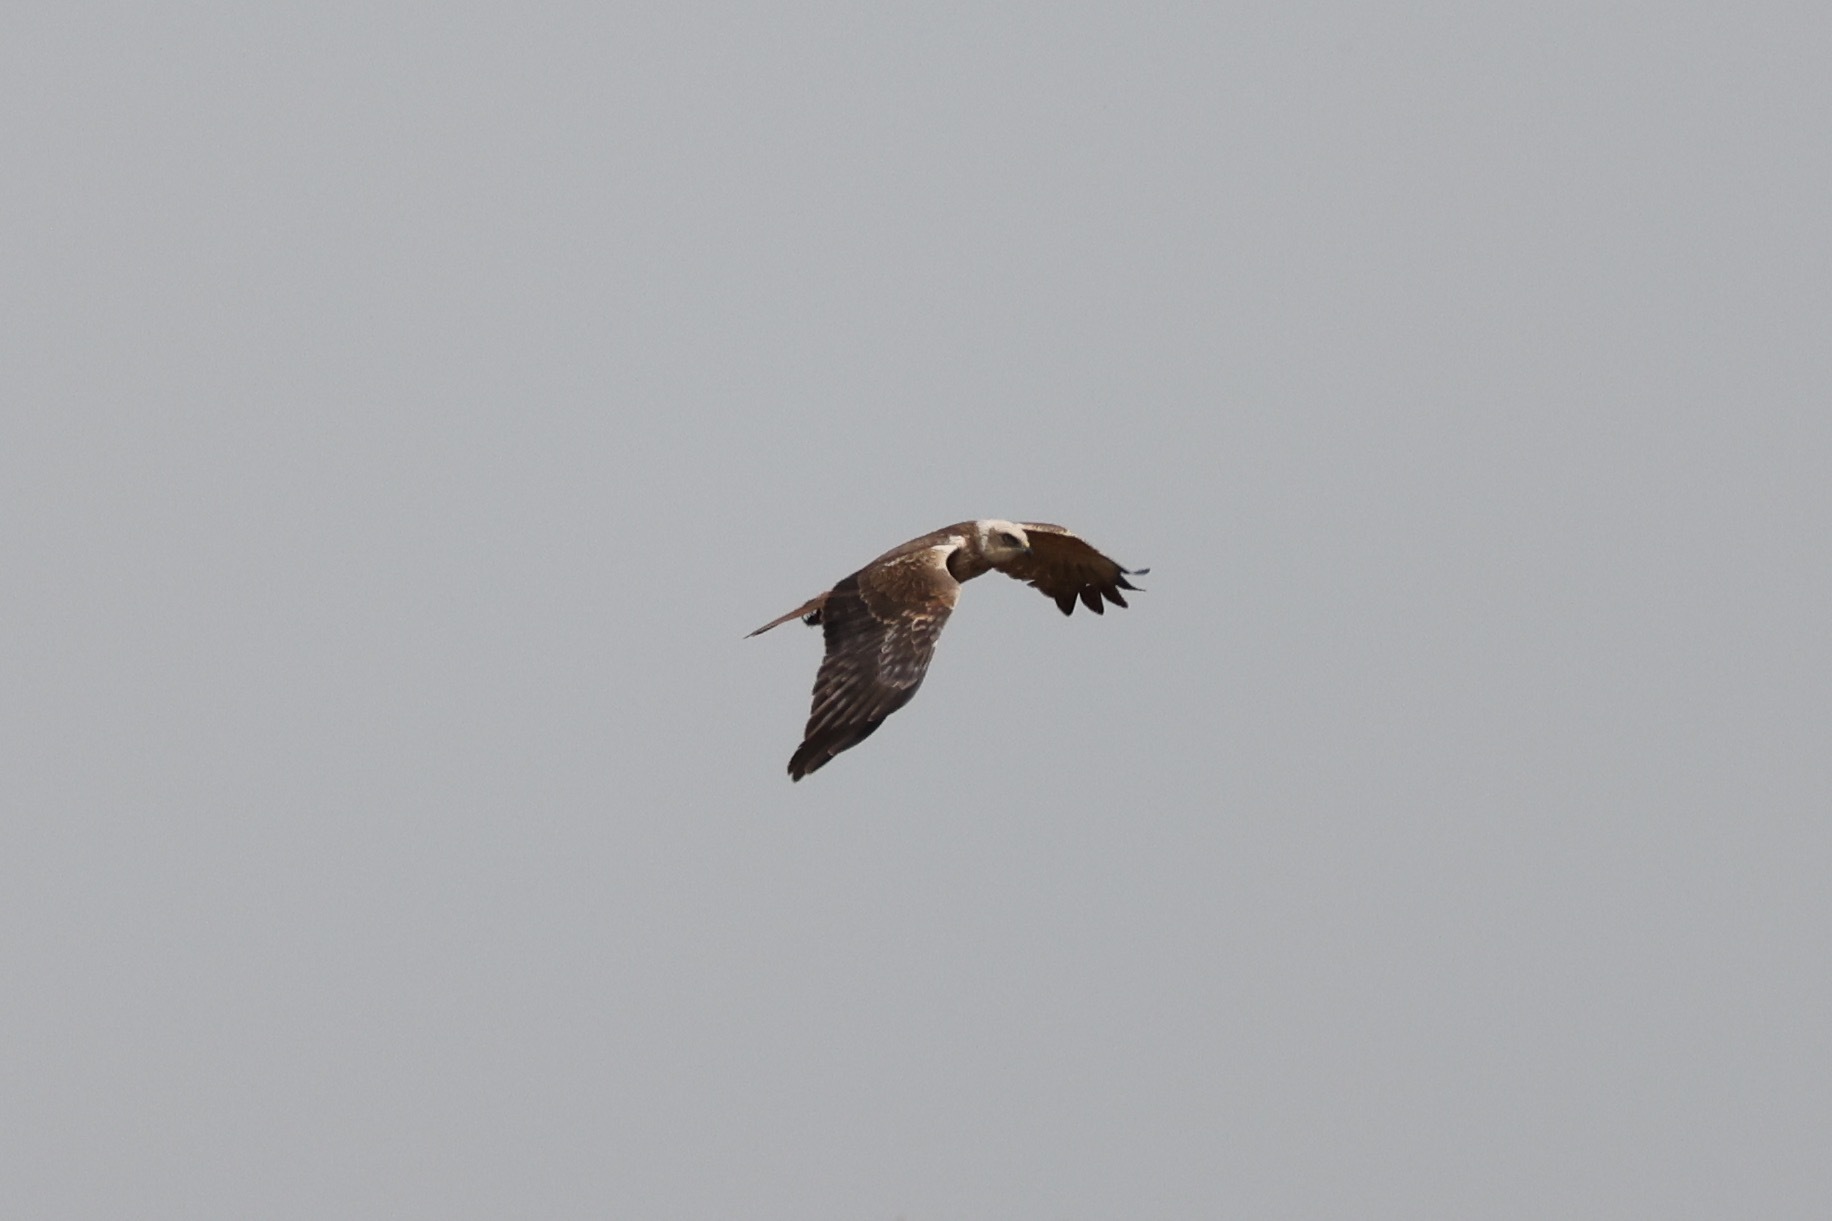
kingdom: Animalia
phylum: Chordata
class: Aves
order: Accipitriformes
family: Accipitridae
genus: Circus
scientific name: Circus aeruginosus
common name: Western marsh harrier
